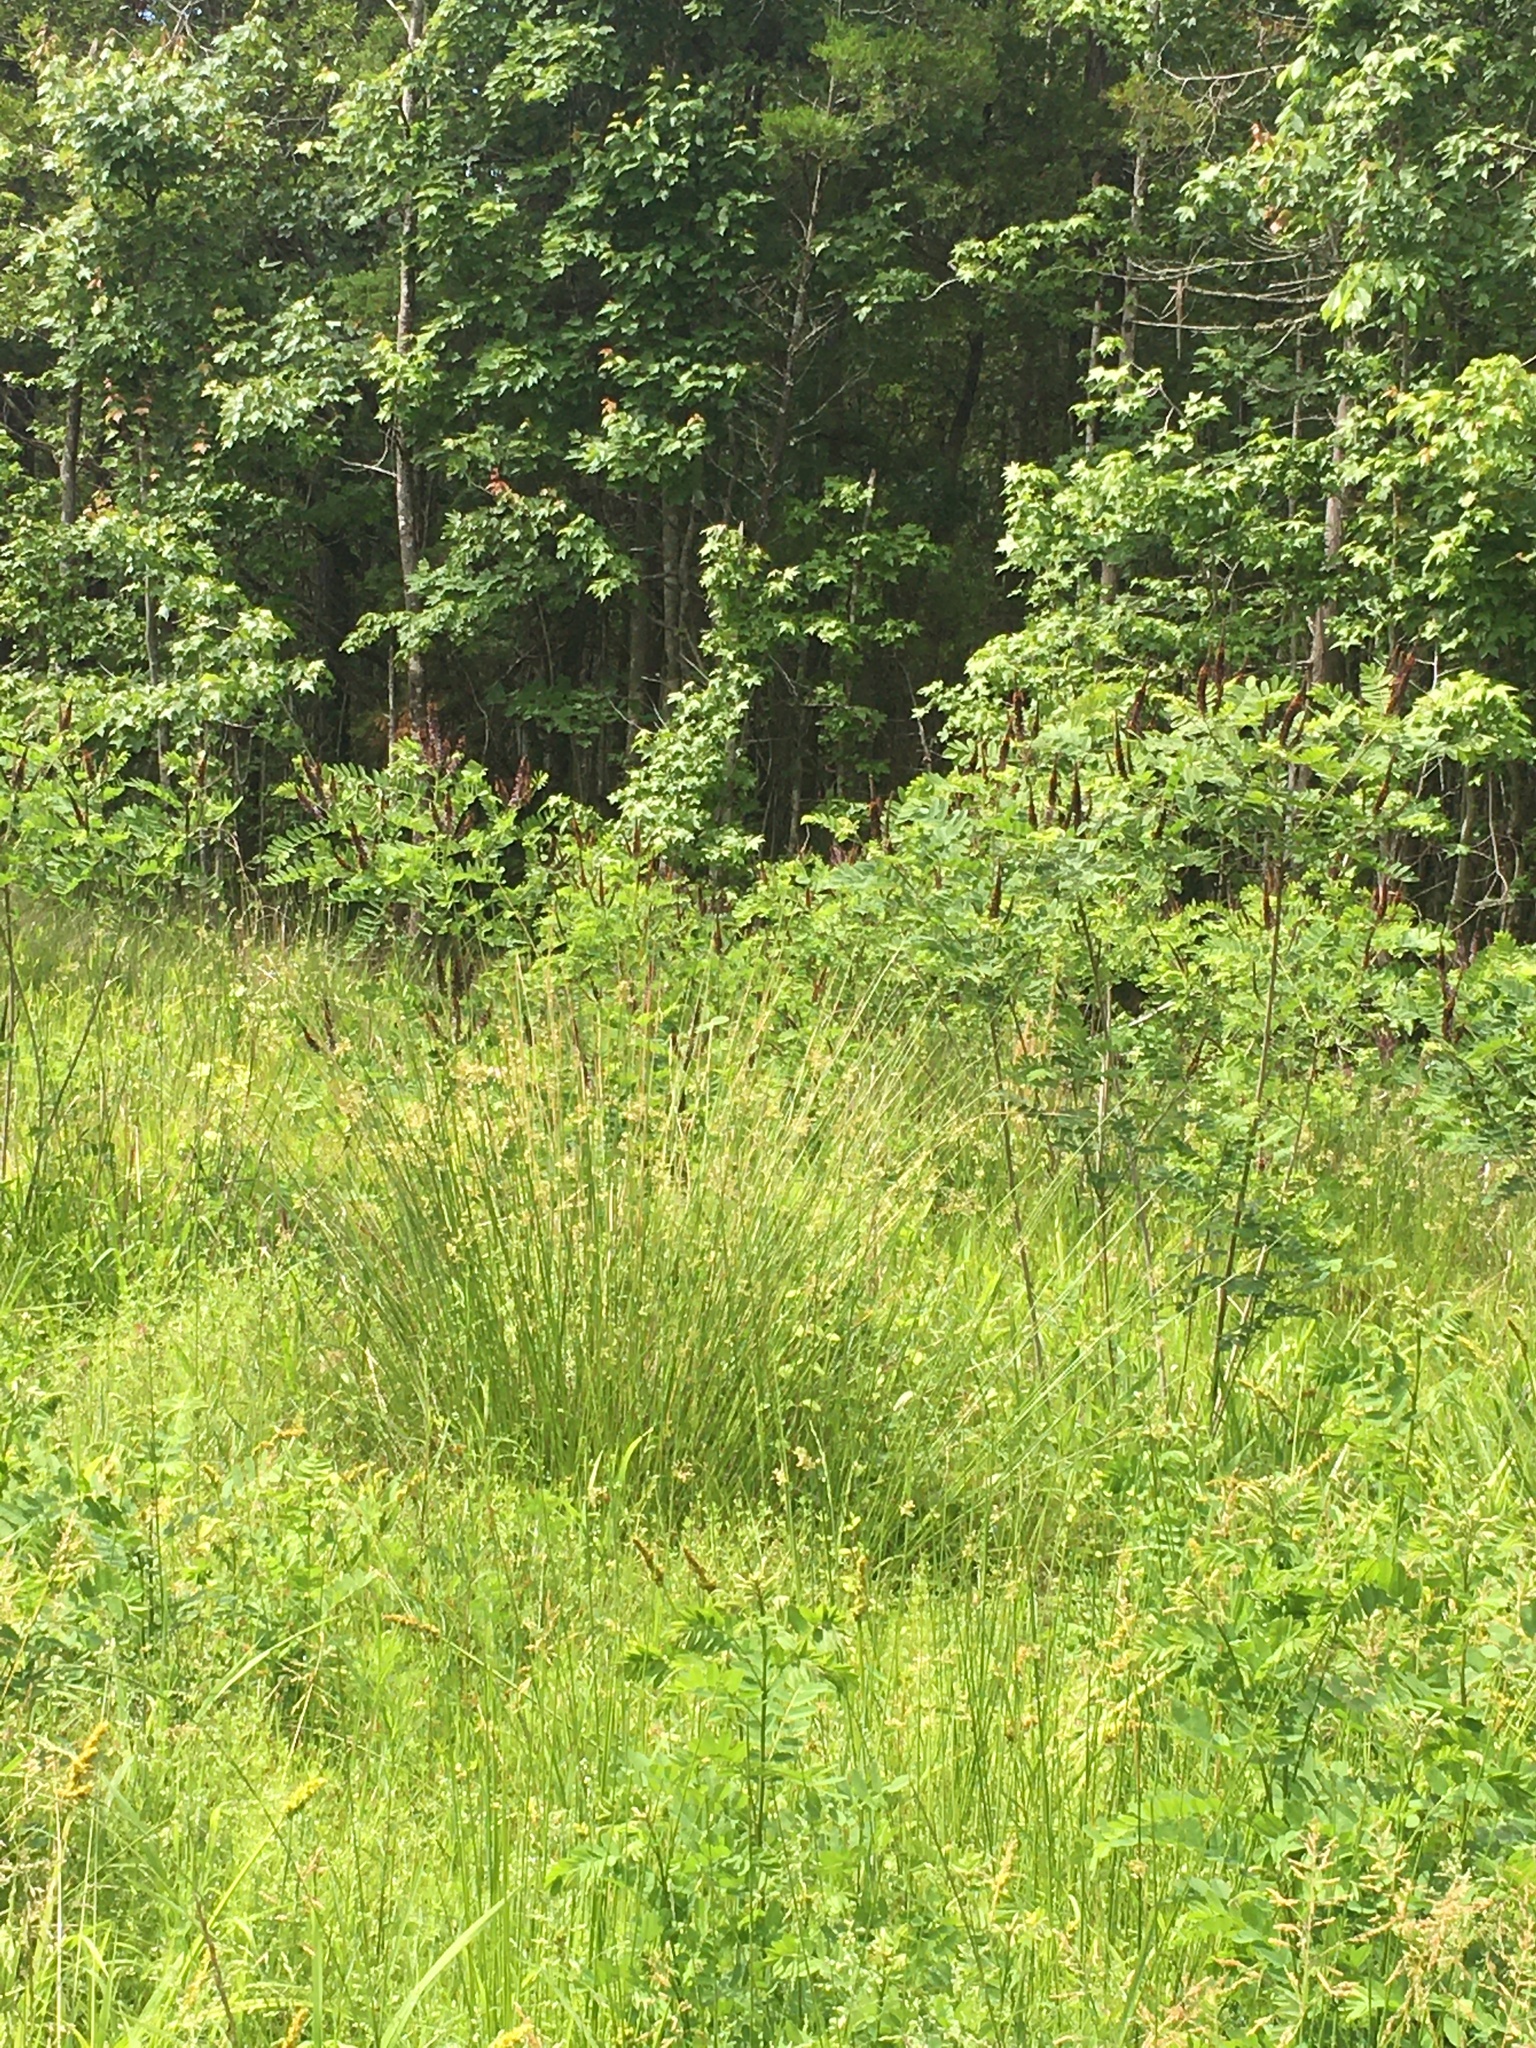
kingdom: Plantae
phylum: Tracheophyta
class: Magnoliopsida
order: Fabales
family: Fabaceae
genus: Amorpha
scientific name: Amorpha fruticosa
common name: False indigo
